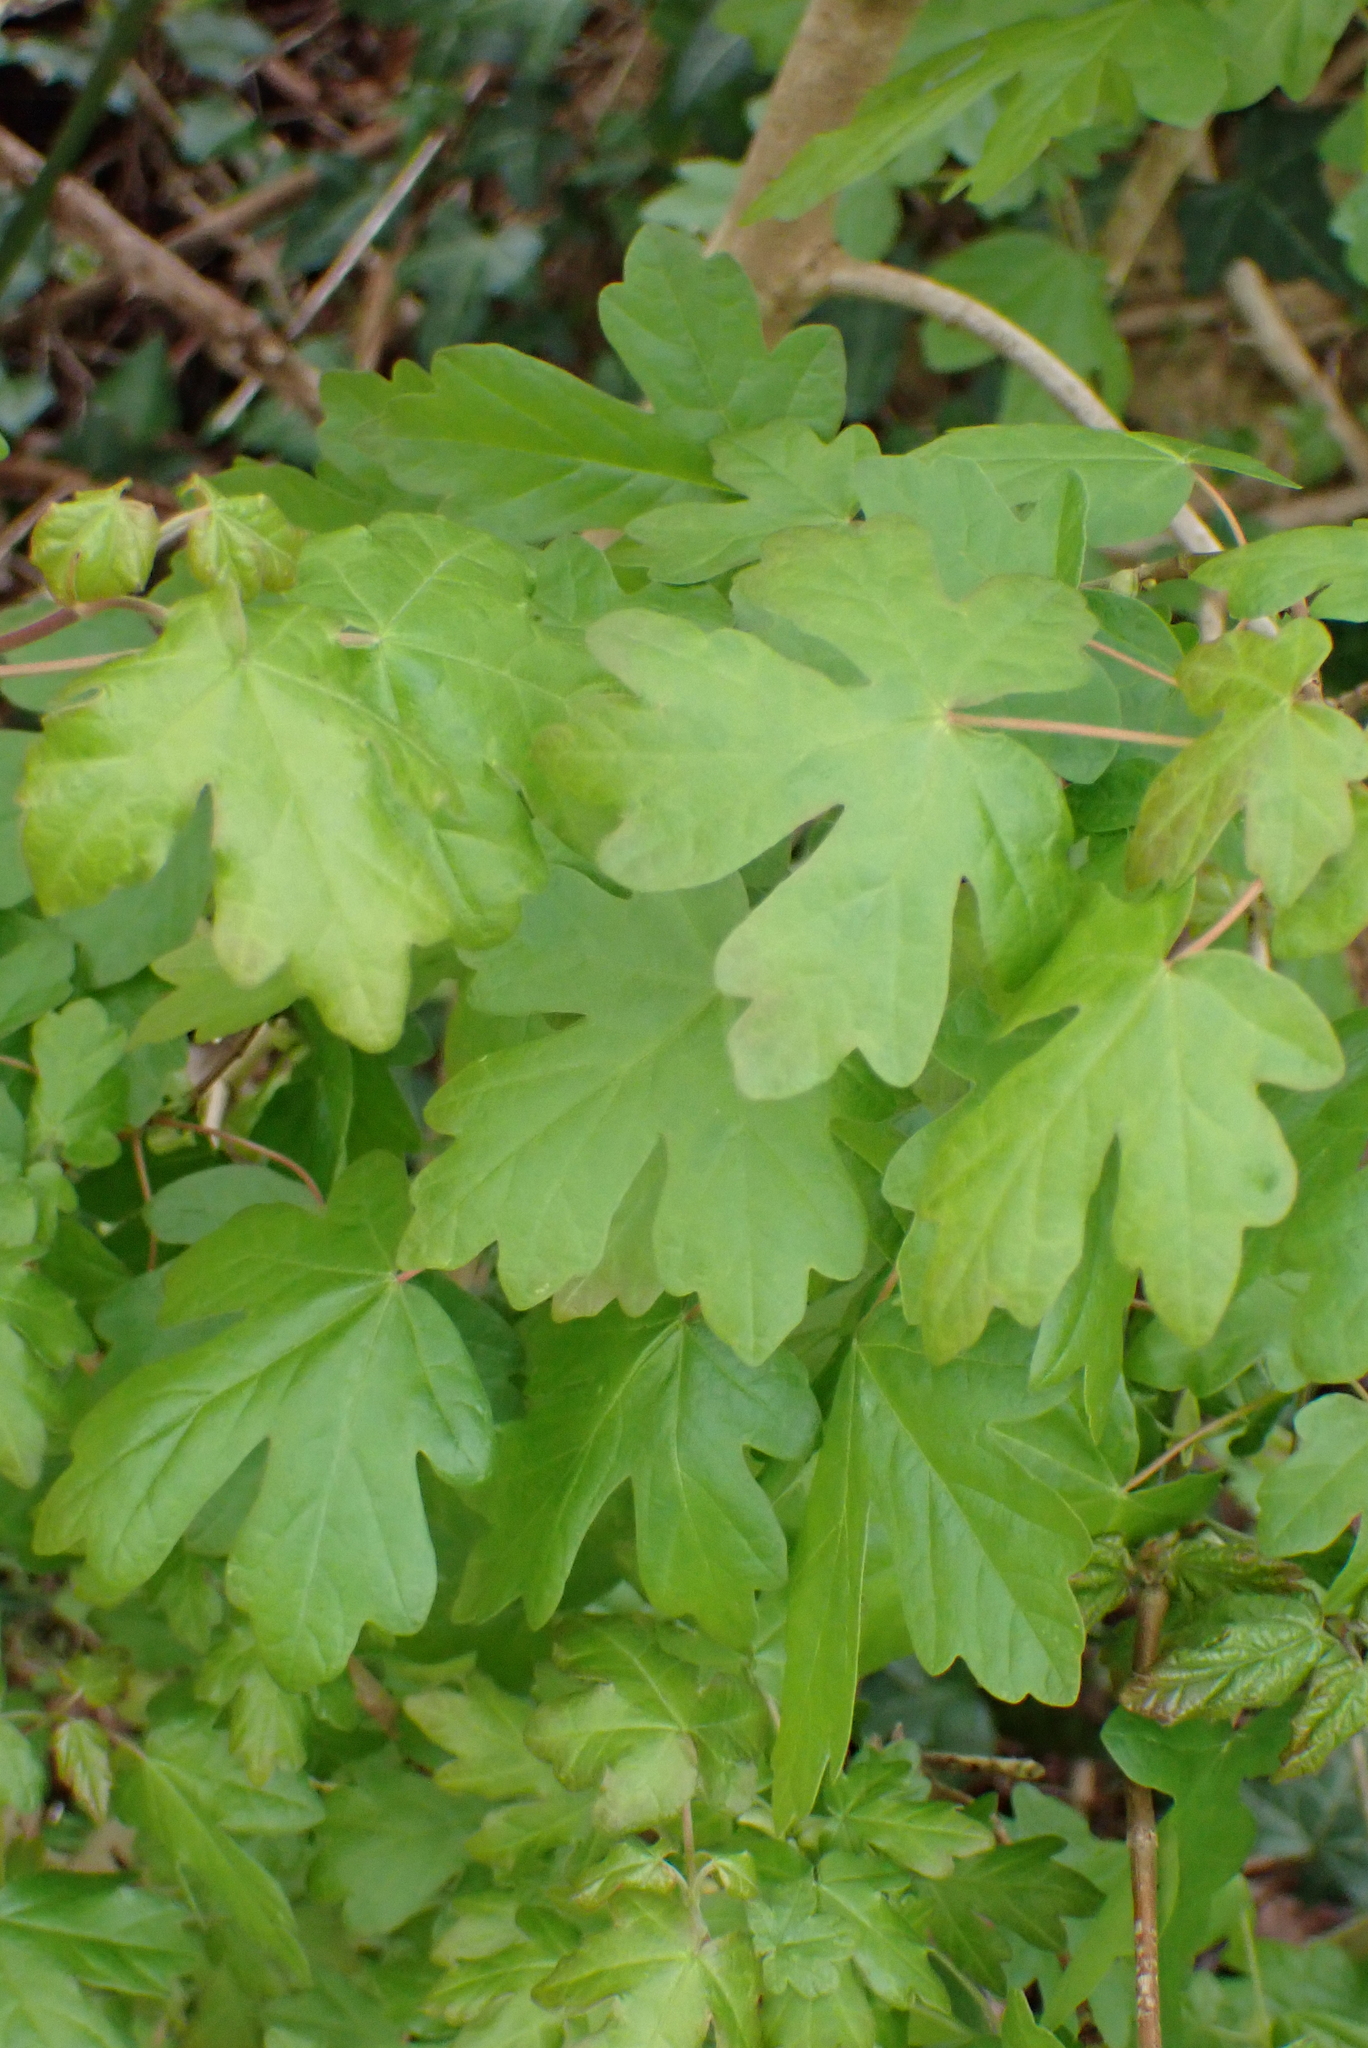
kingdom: Plantae
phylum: Tracheophyta
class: Magnoliopsida
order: Sapindales
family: Sapindaceae
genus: Acer
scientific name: Acer campestre
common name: Field maple
